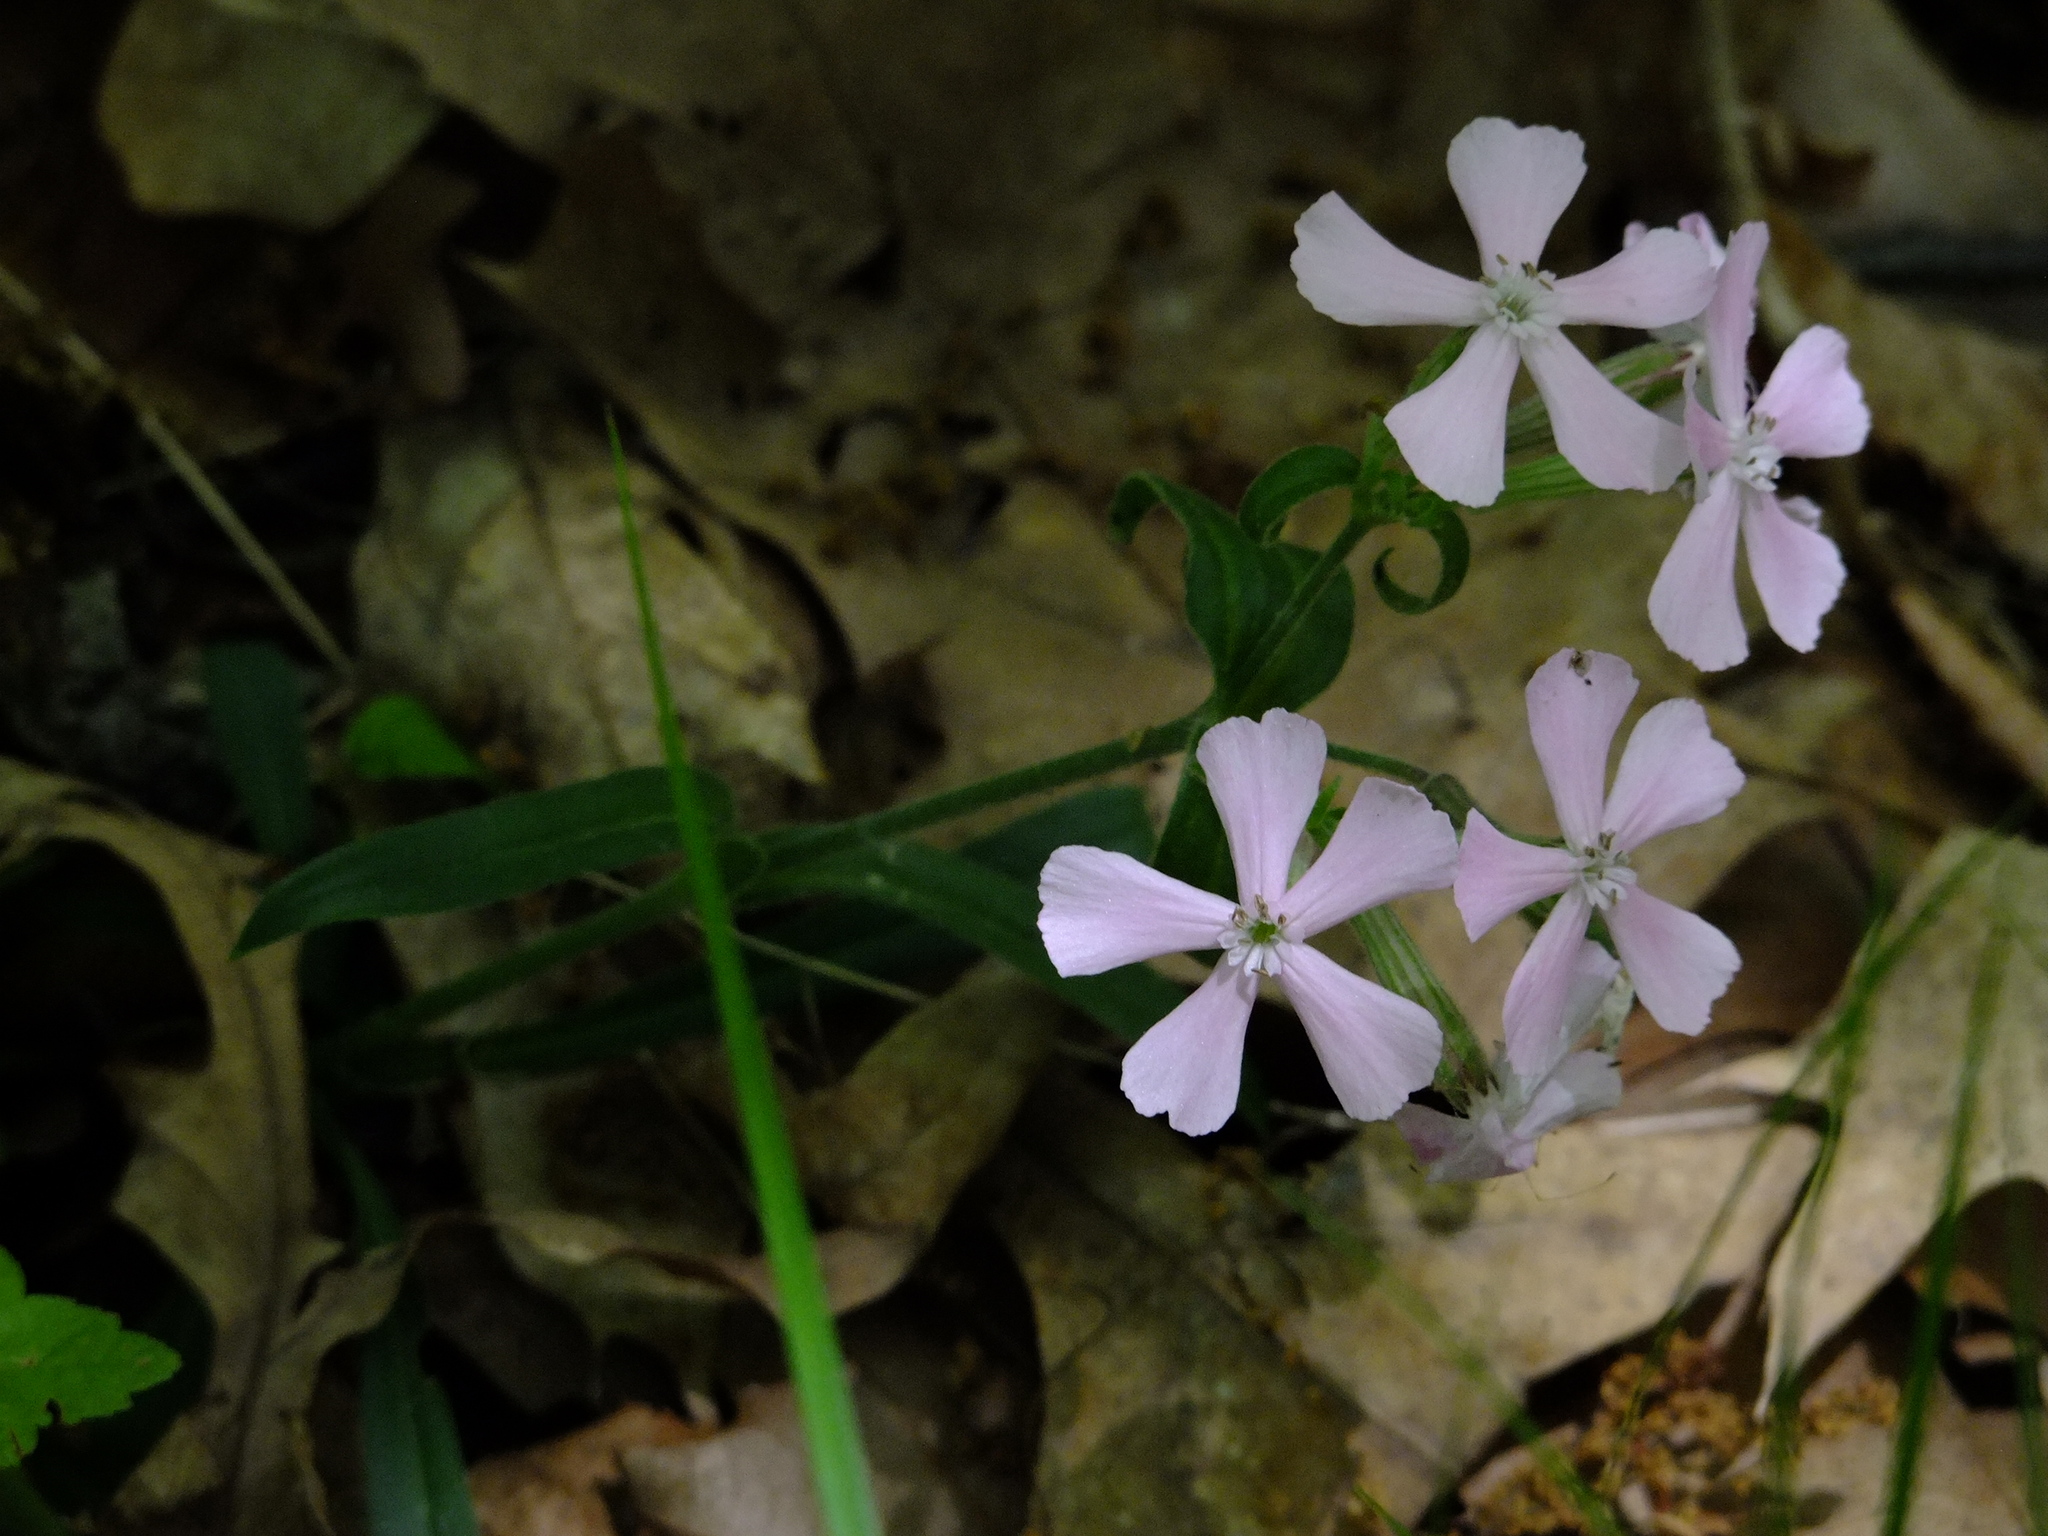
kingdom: Plantae
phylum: Tracheophyta
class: Magnoliopsida
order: Caryophyllales
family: Caryophyllaceae
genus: Silene
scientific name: Silene caroliniana
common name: Sticky catchfly
